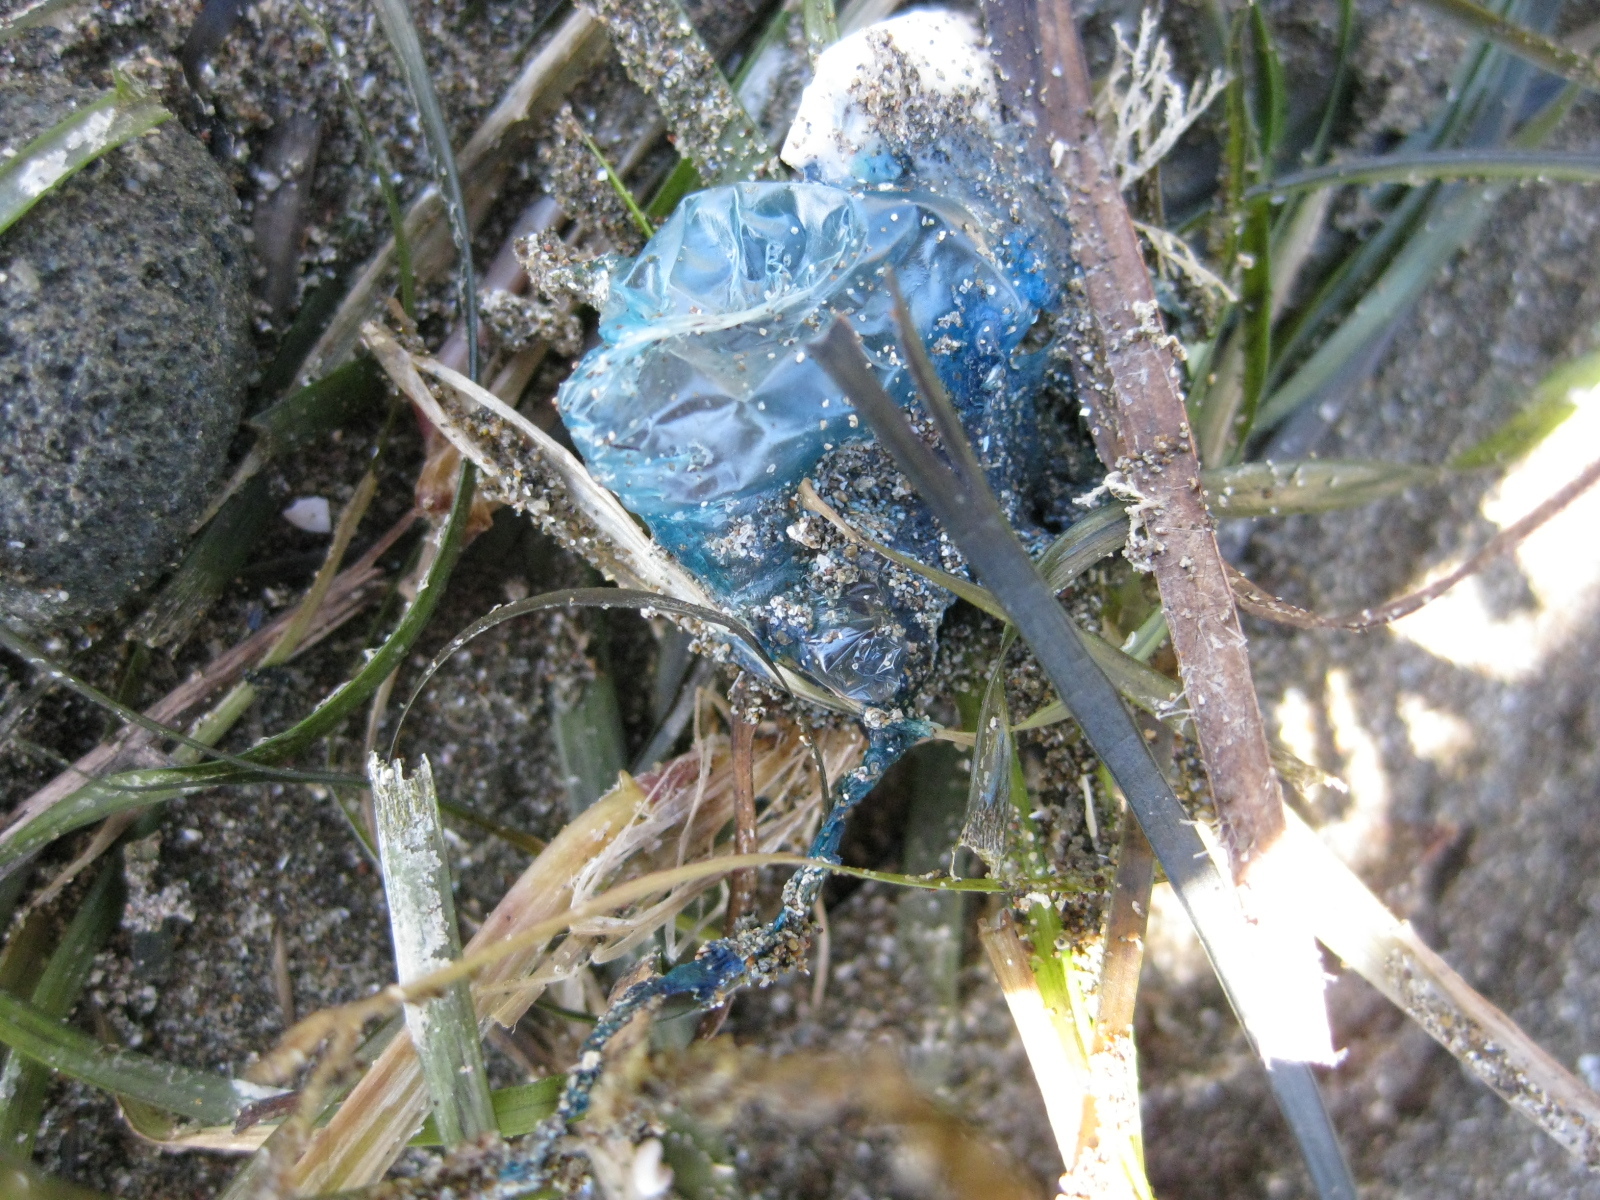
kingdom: Animalia
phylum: Cnidaria
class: Hydrozoa
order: Siphonophorae
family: Physaliidae
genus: Physalia
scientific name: Physalia physalis
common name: Portuguese man-of-war
